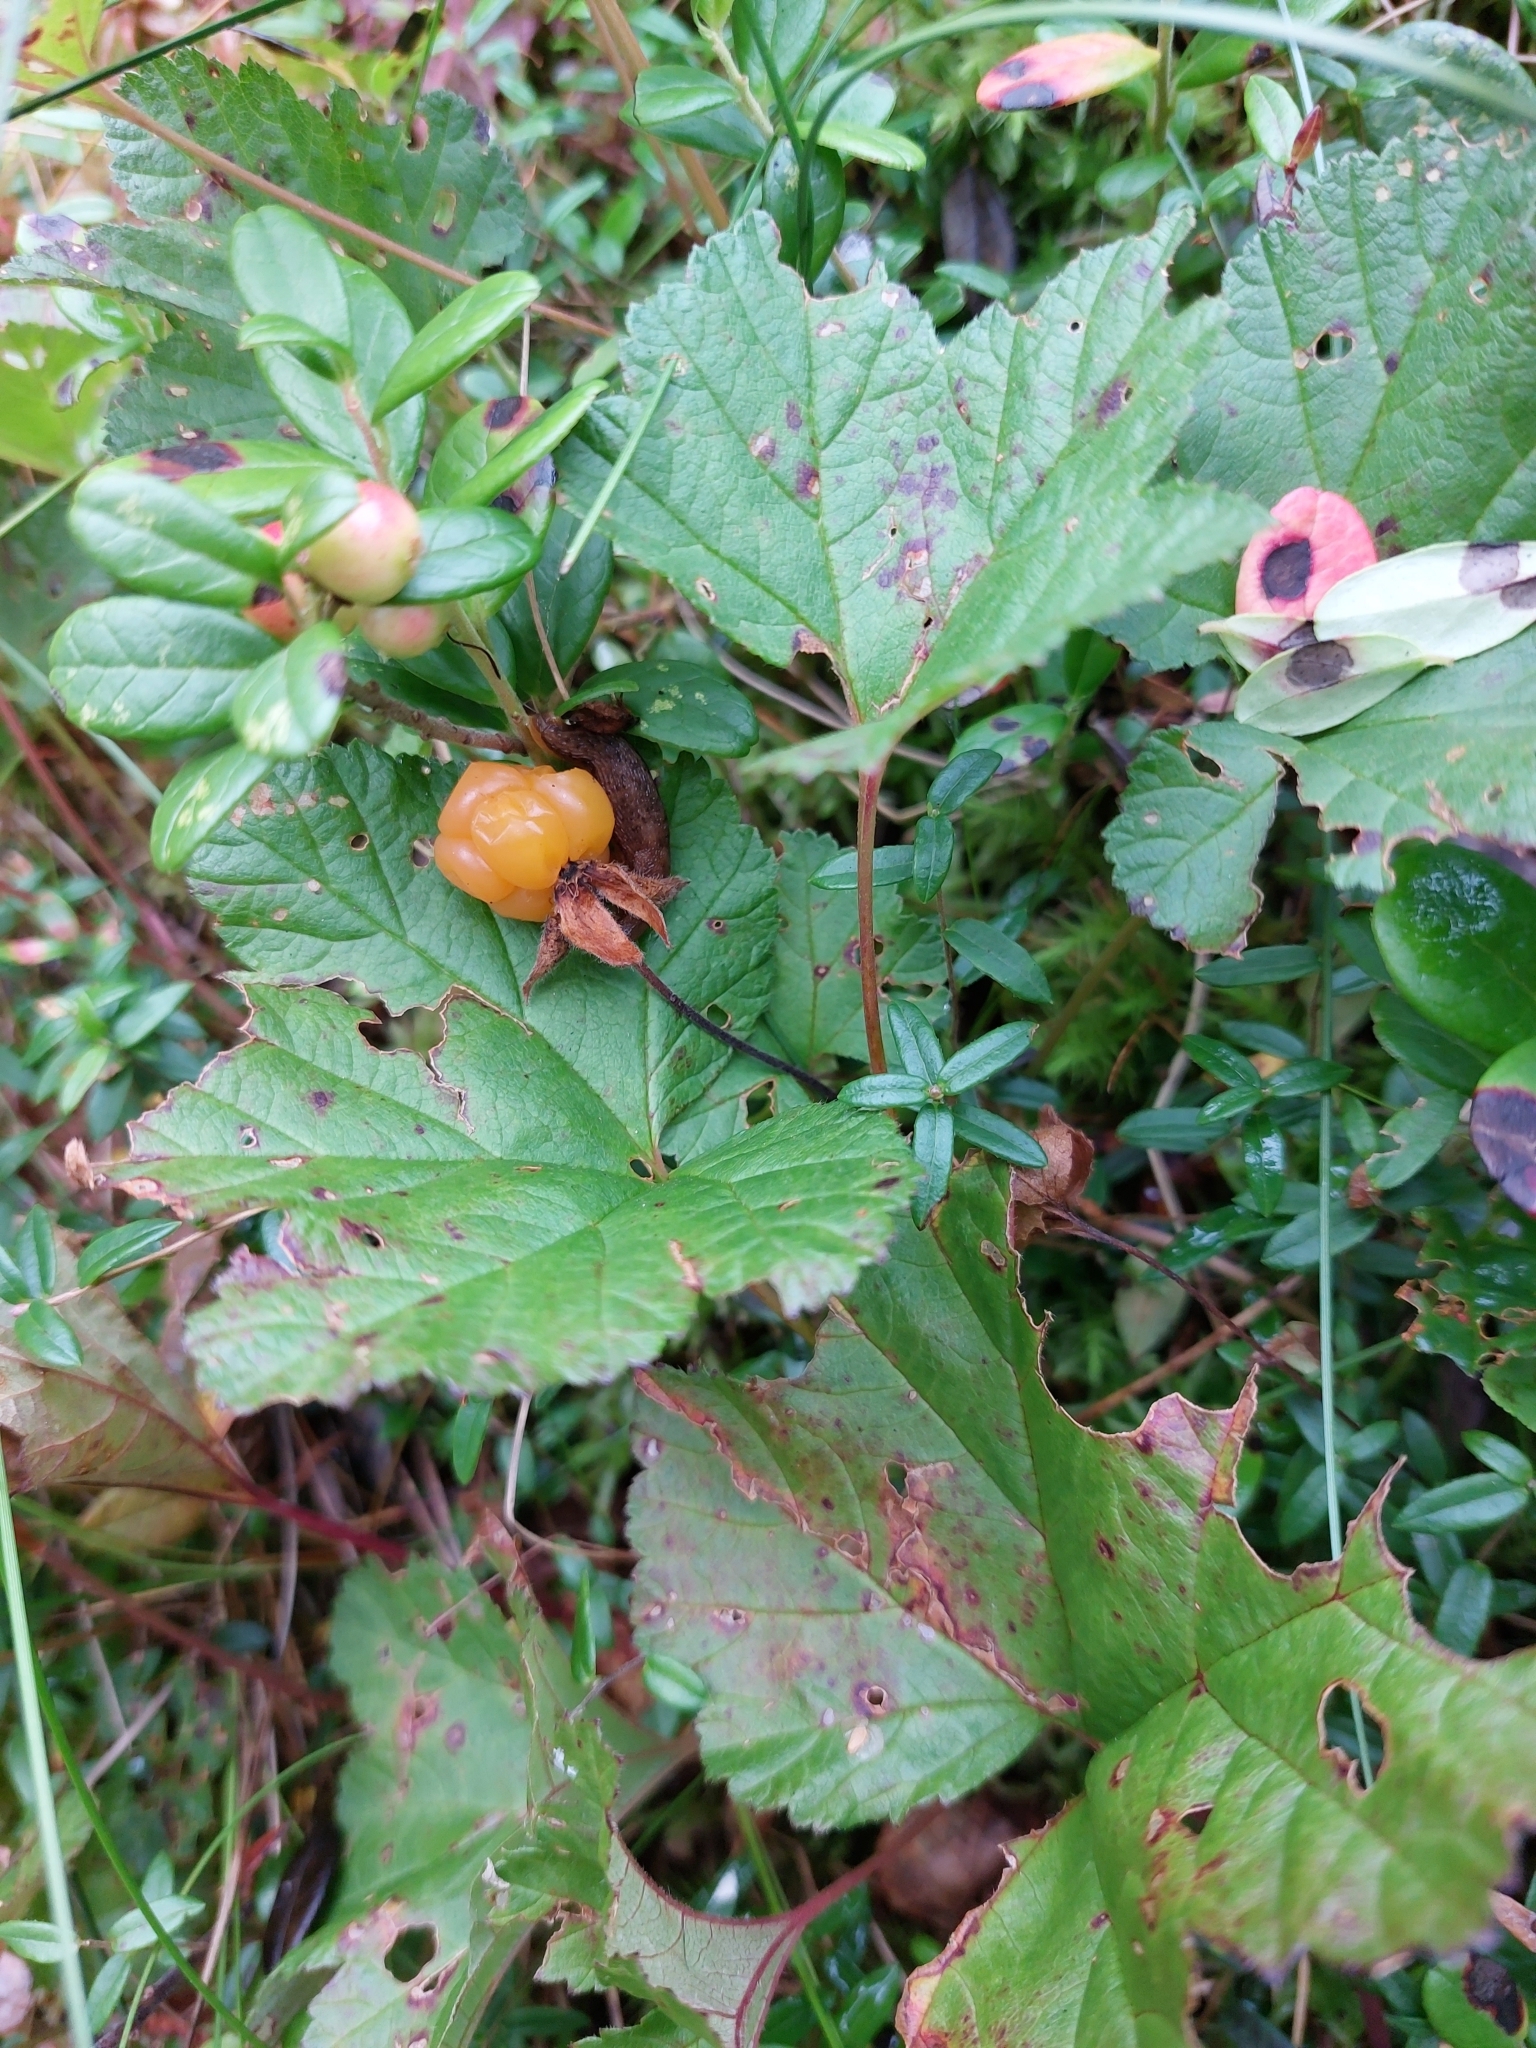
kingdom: Plantae
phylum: Tracheophyta
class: Magnoliopsida
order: Rosales
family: Rosaceae
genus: Rubus
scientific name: Rubus chamaemorus
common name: Cloudberry
